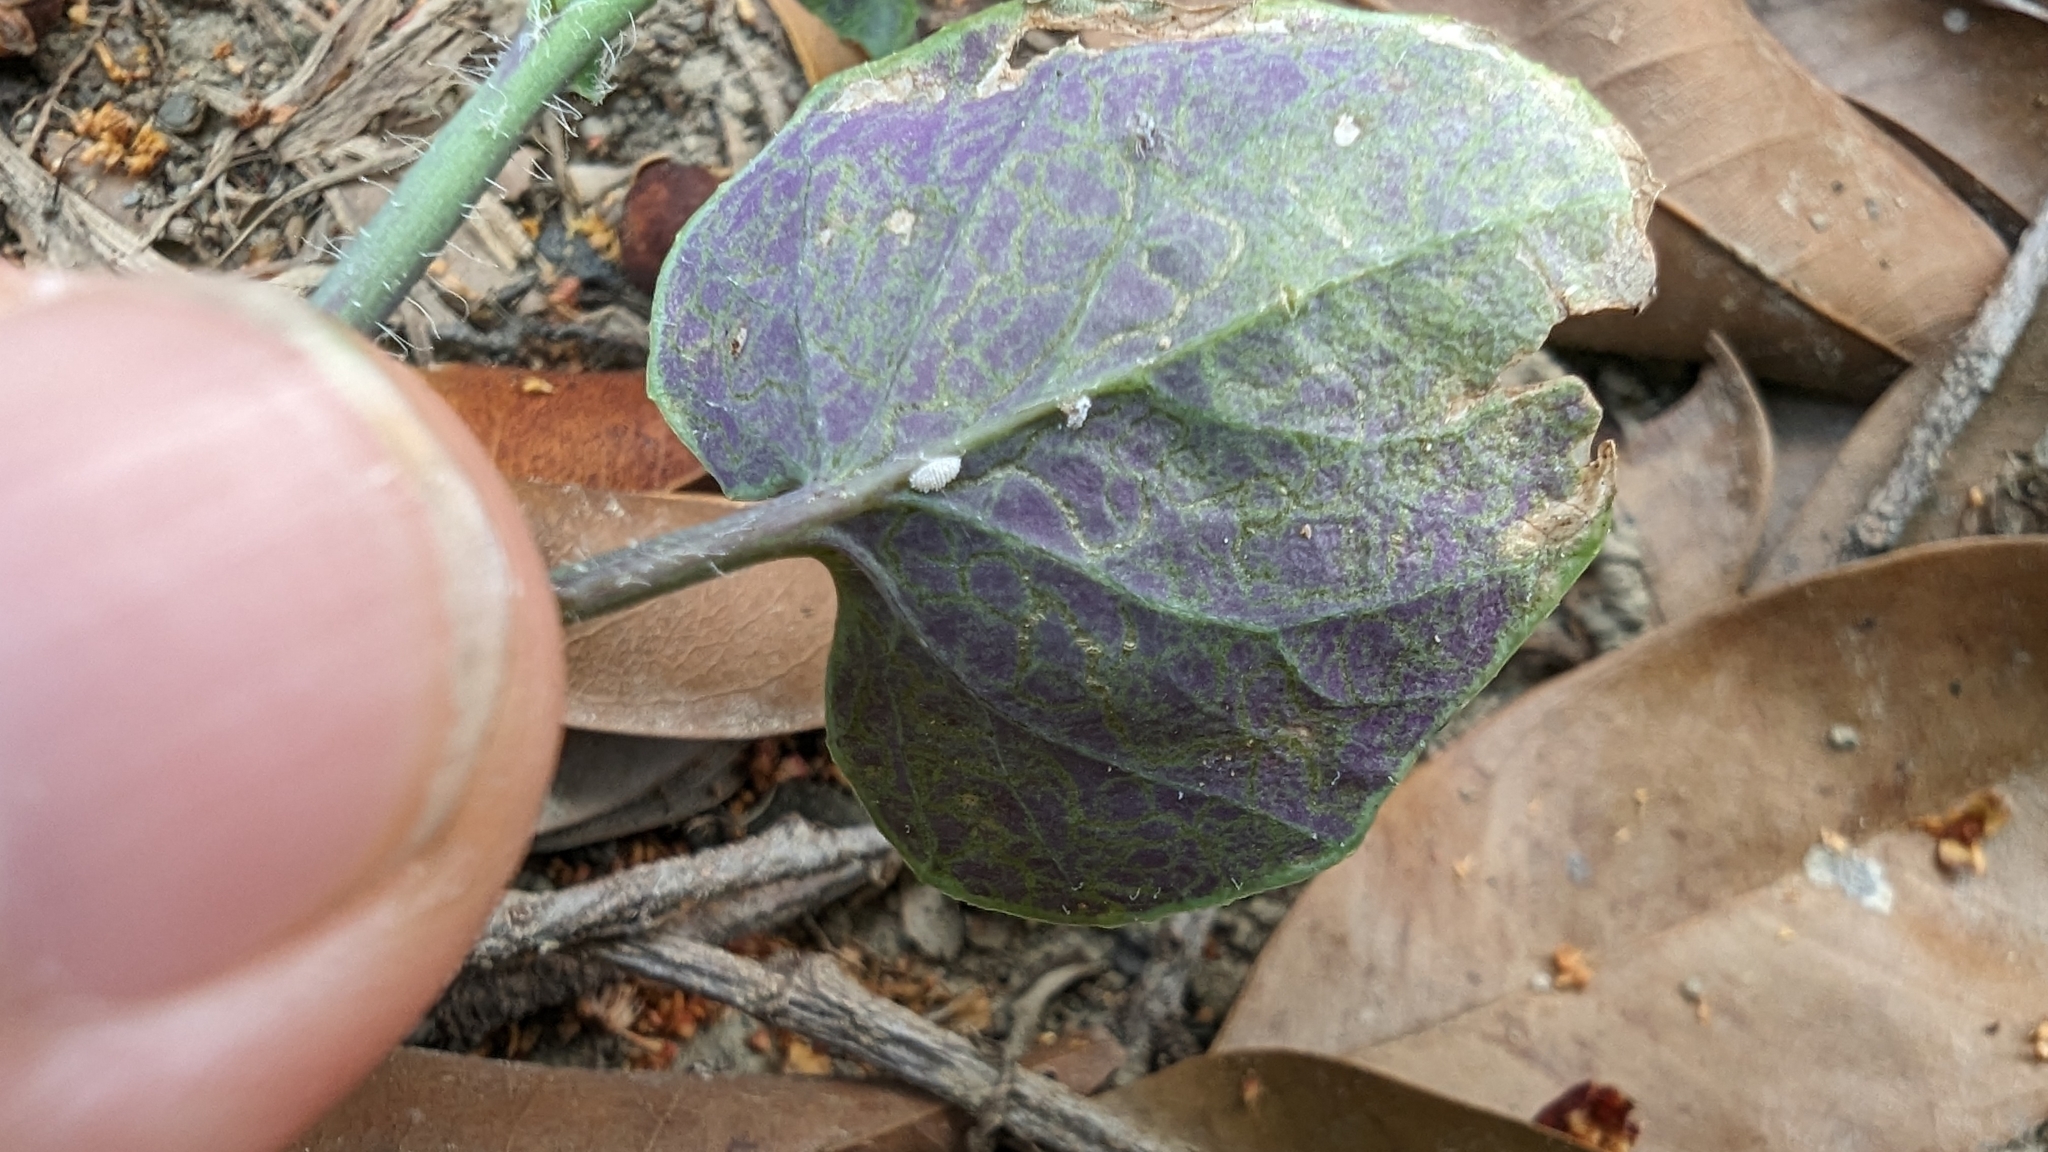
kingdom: Plantae
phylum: Tracheophyta
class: Magnoliopsida
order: Asterales
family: Asteraceae
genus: Emilia
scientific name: Emilia javanica
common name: Tassel-flower
